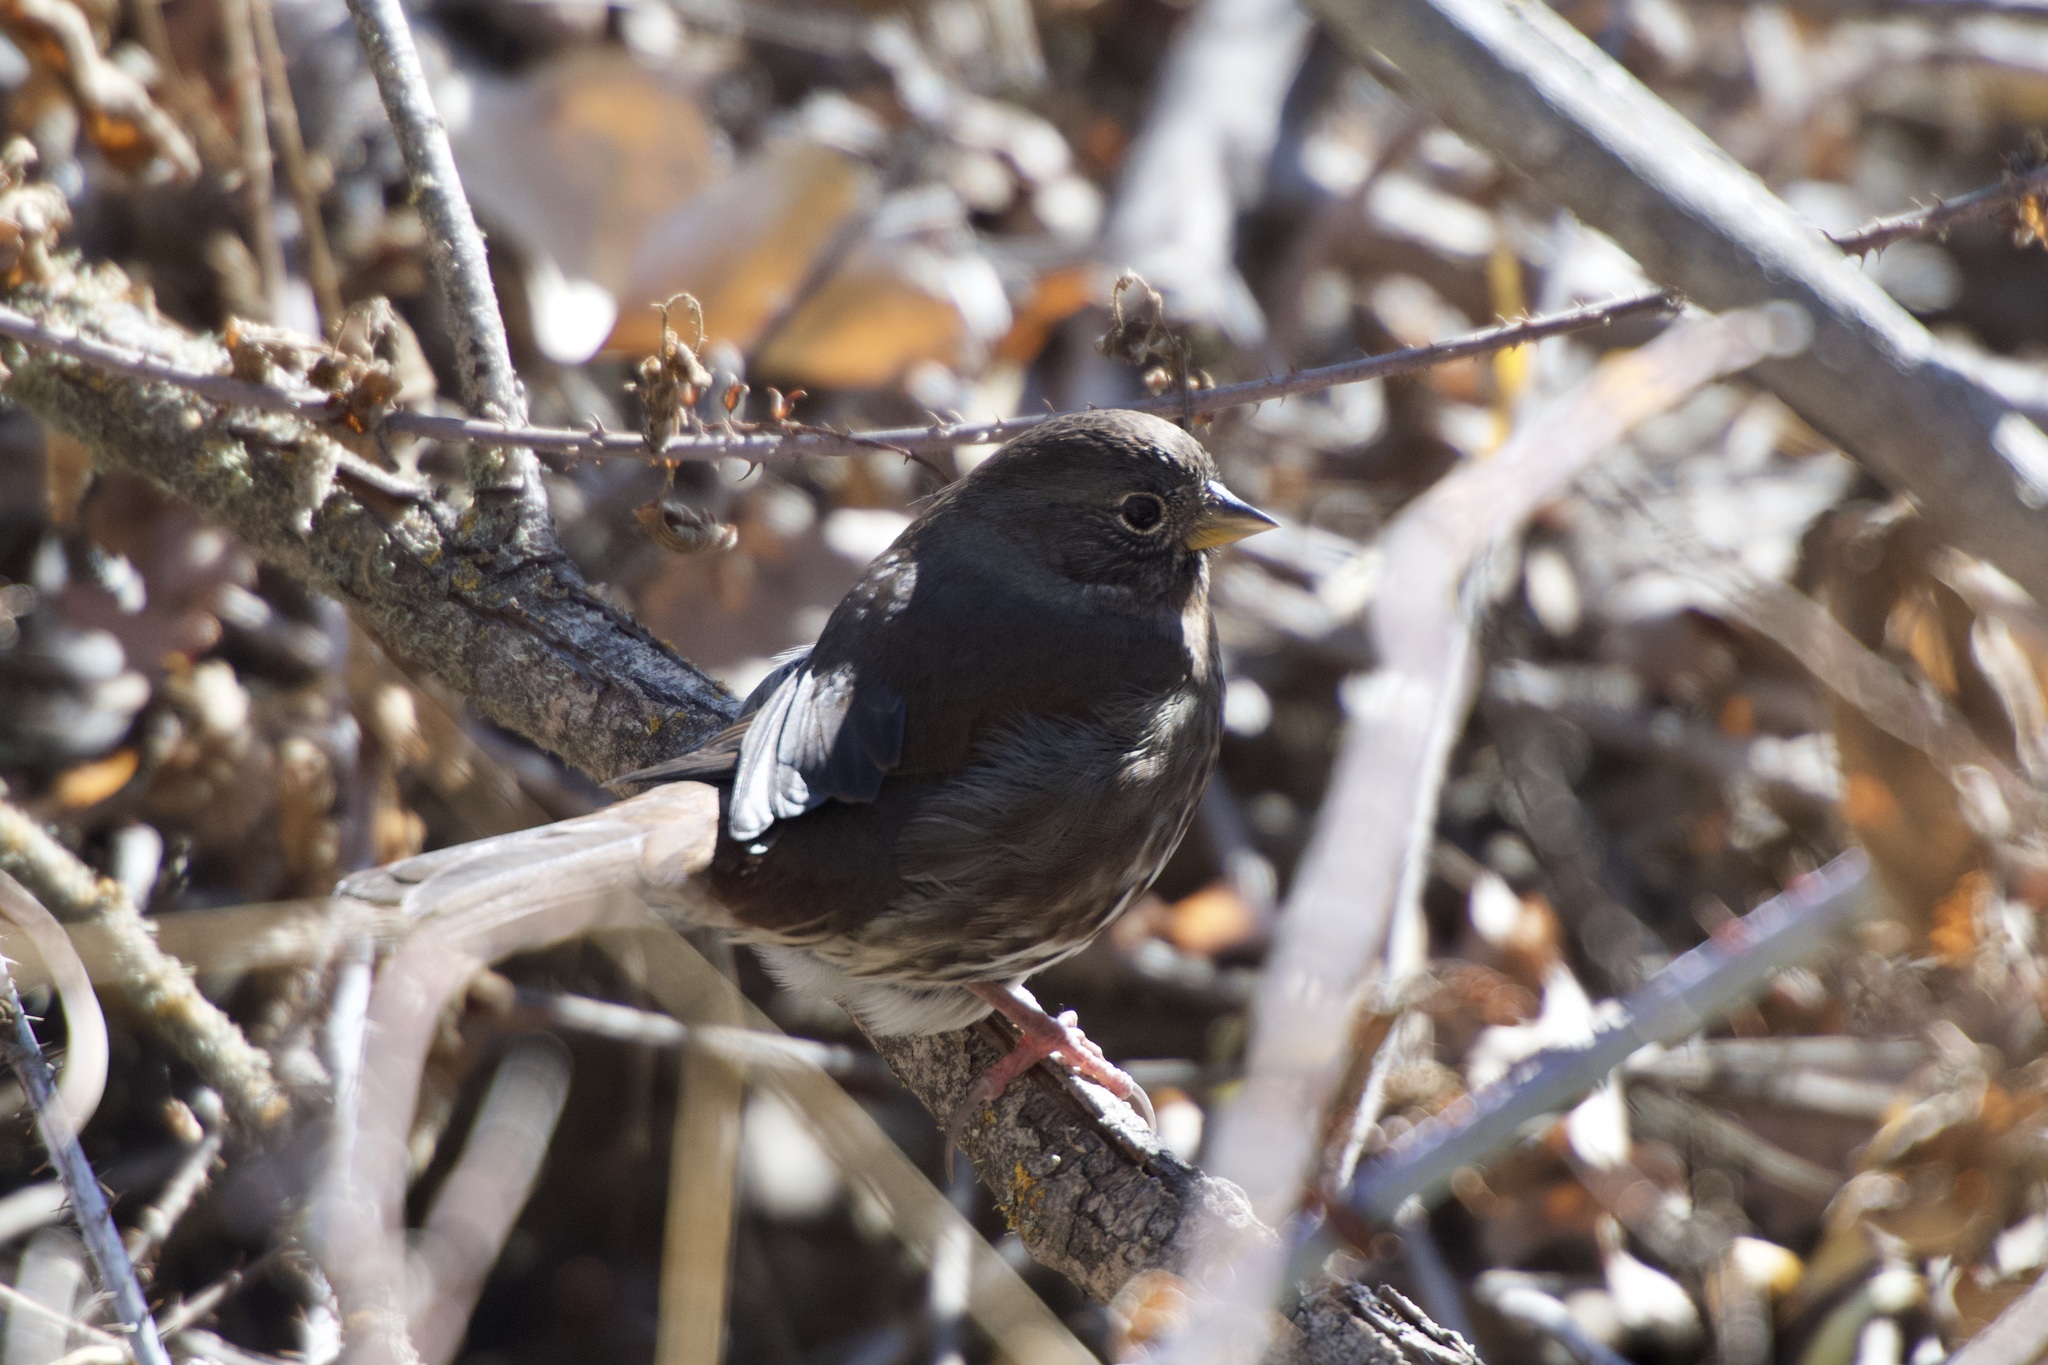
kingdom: Animalia
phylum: Chordata
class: Aves
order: Passeriformes
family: Passerellidae
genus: Passerella
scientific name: Passerella iliaca
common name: Fox sparrow
